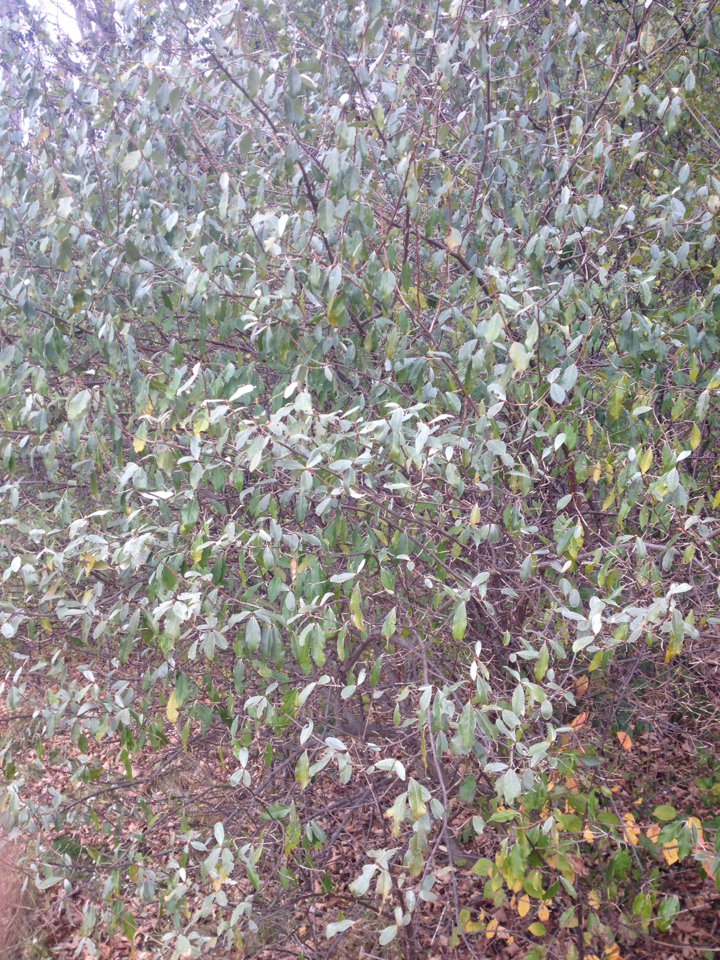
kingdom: Plantae
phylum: Tracheophyta
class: Magnoliopsida
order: Rosales
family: Elaeagnaceae
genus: Elaeagnus
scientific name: Elaeagnus umbellata
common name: Autumn olive
